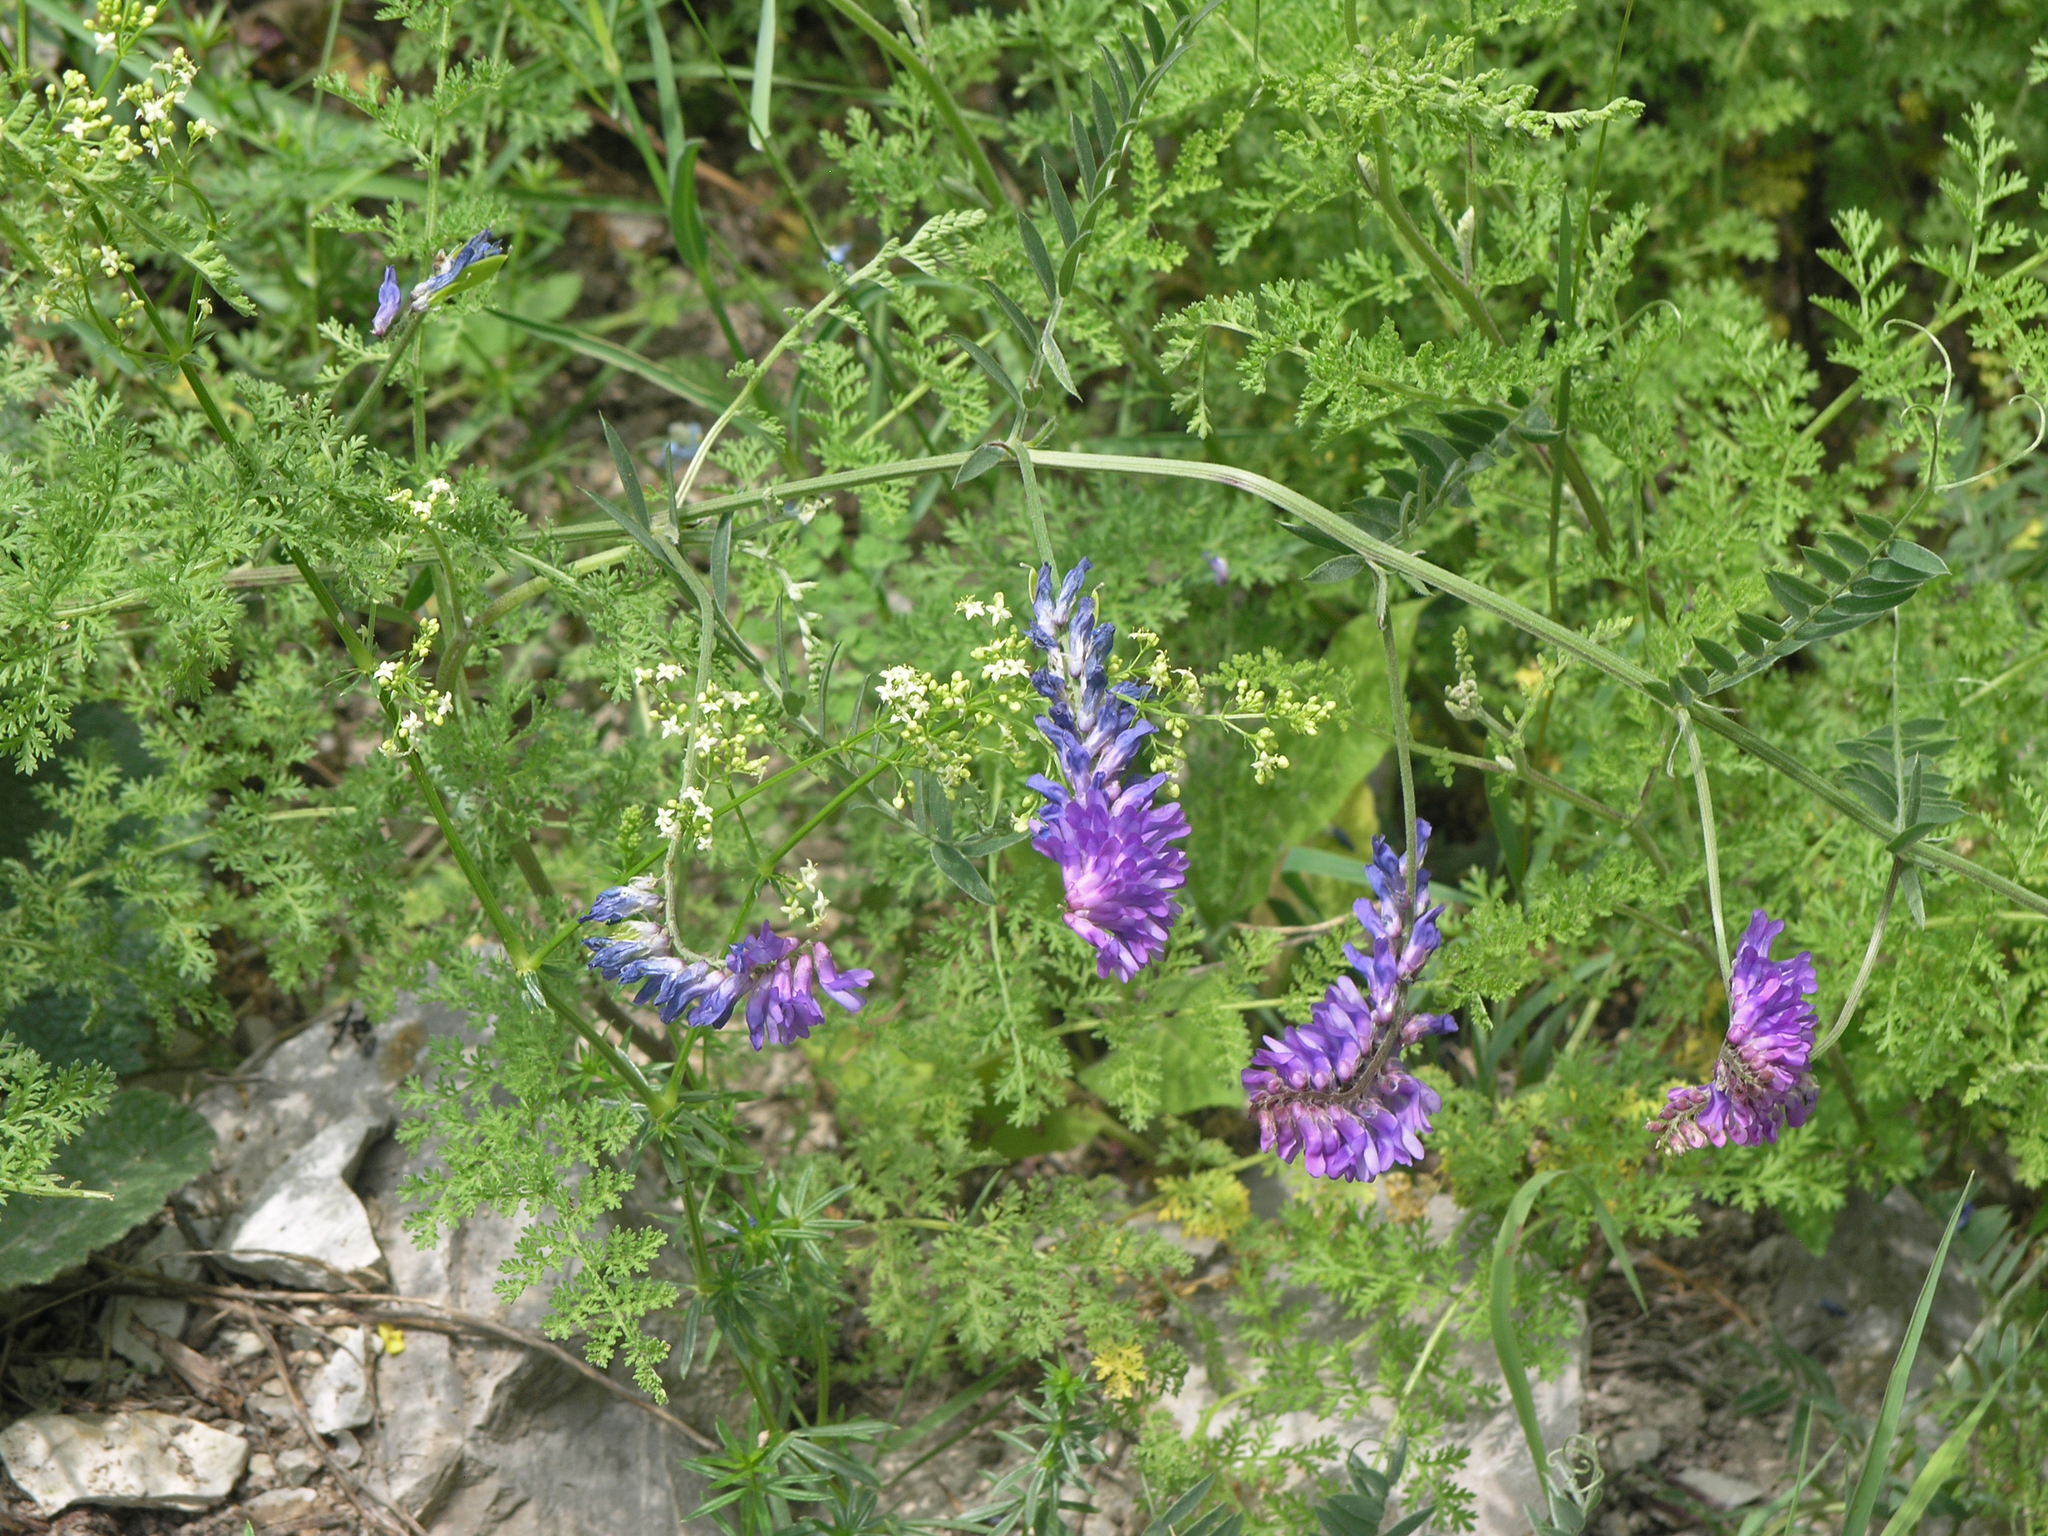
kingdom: Plantae
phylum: Tracheophyta
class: Magnoliopsida
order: Fabales
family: Fabaceae
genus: Vicia
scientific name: Vicia cracca
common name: Bird vetch
